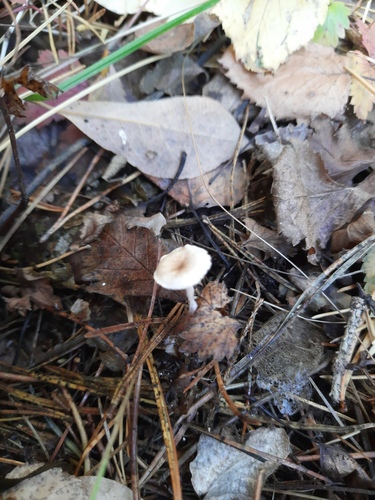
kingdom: Fungi
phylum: Basidiomycota
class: Agaricomycetes
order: Agaricales
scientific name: Agaricales
